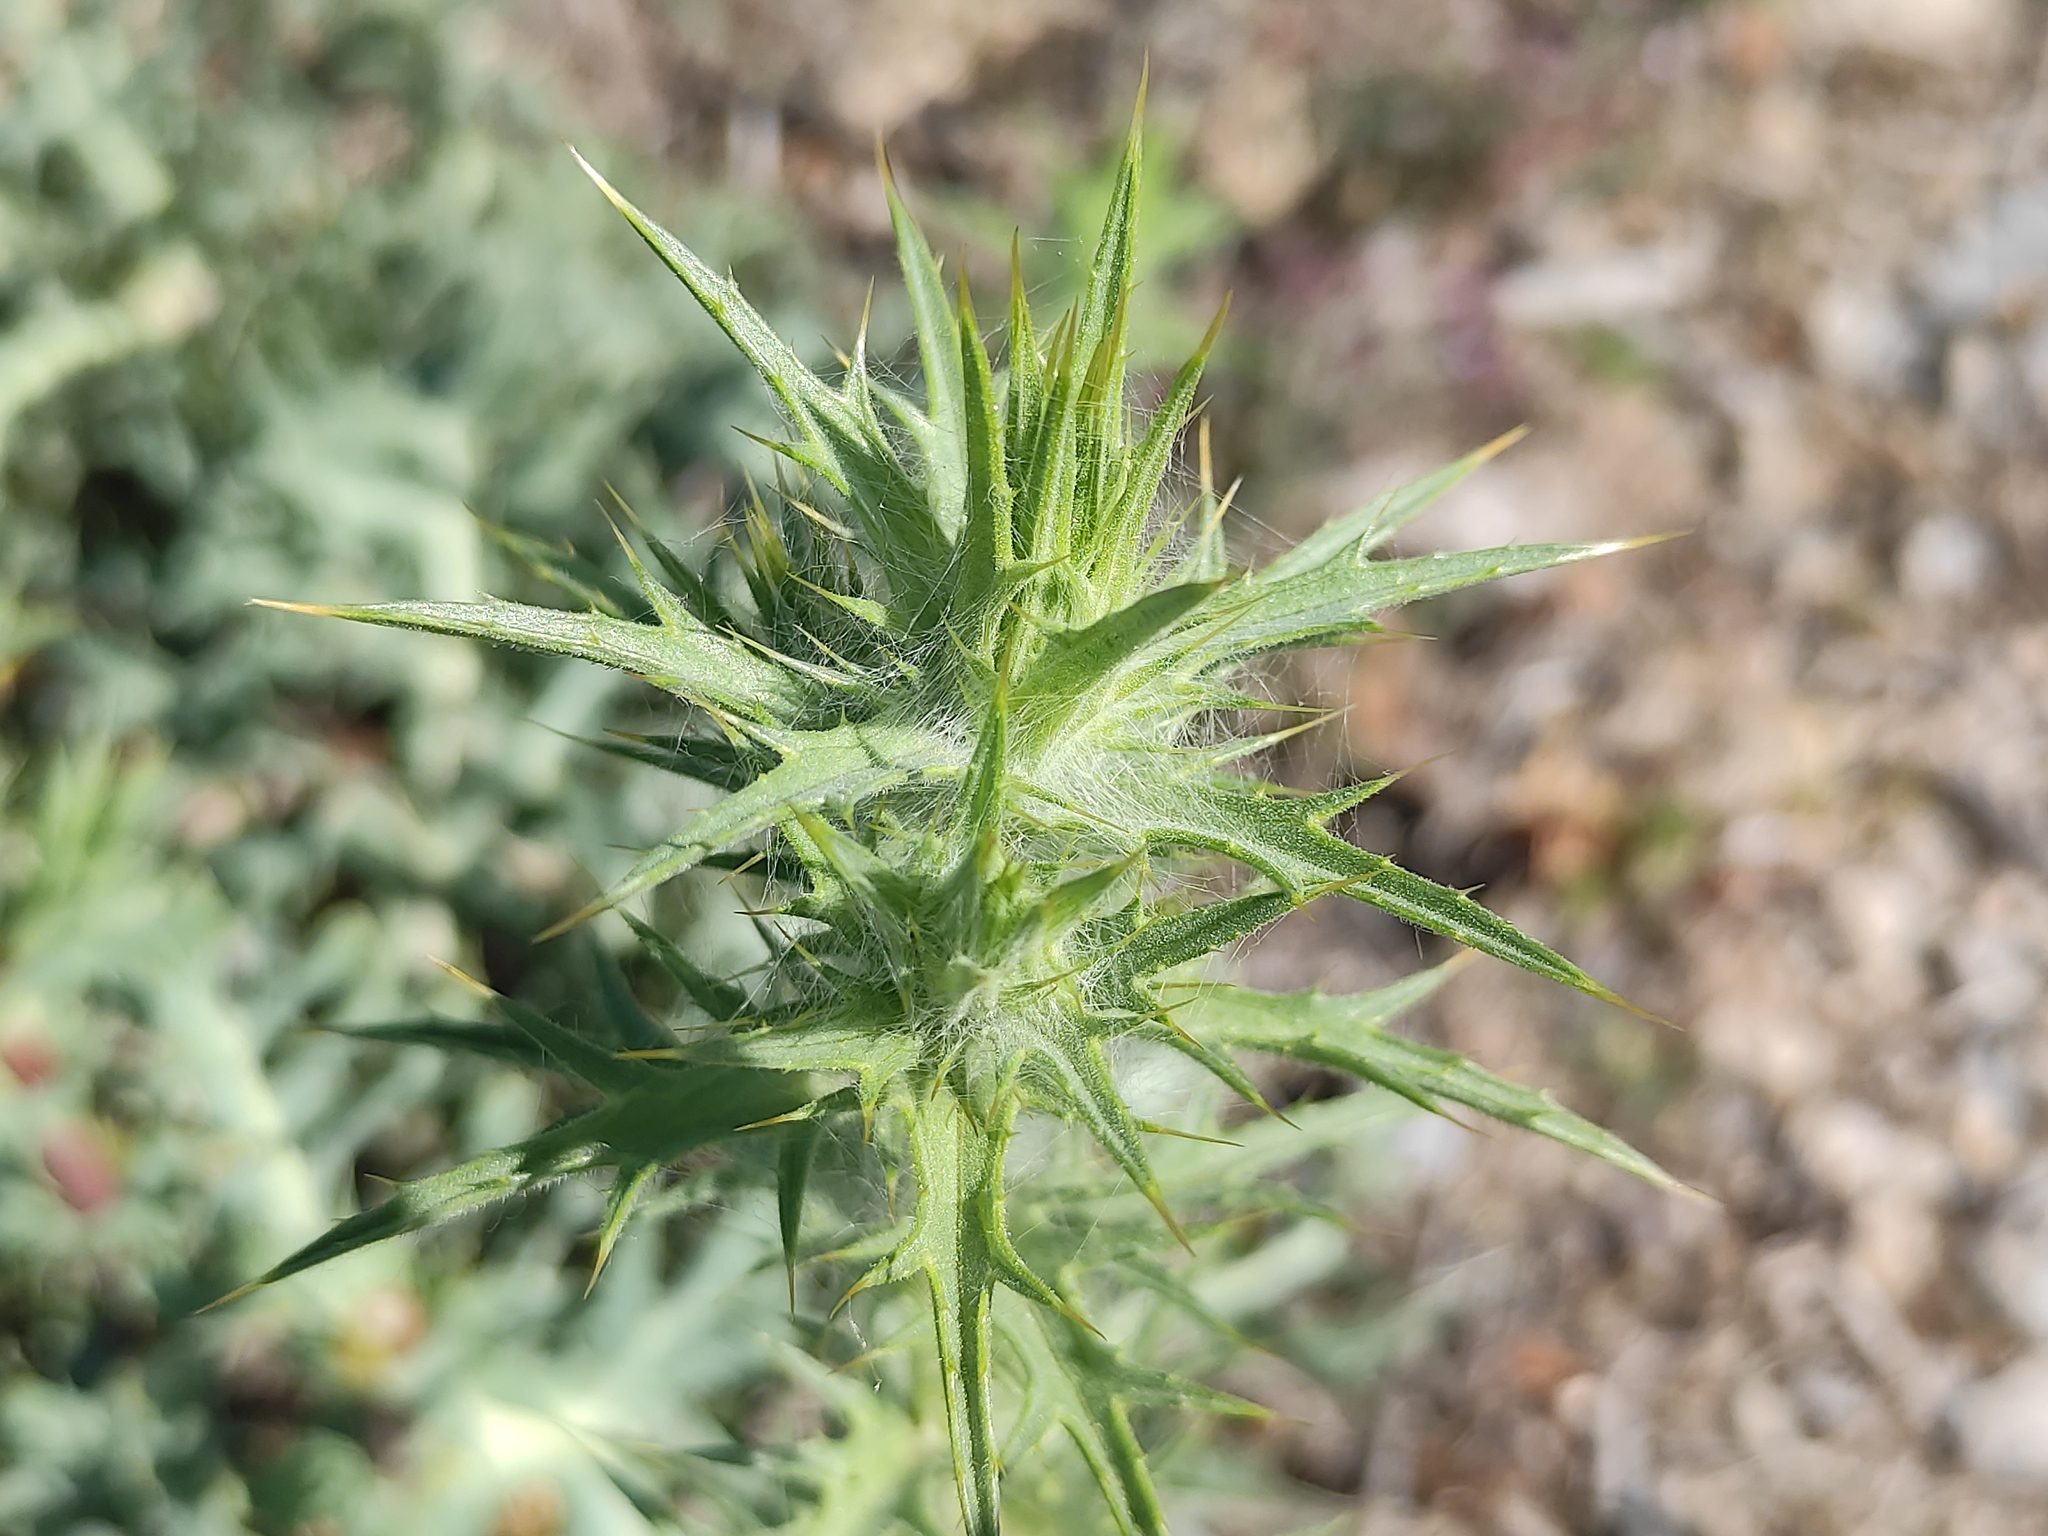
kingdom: Plantae
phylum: Tracheophyta
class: Magnoliopsida
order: Asterales
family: Asteraceae
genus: Carthamus
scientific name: Carthamus lanatus
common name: Downy safflower
